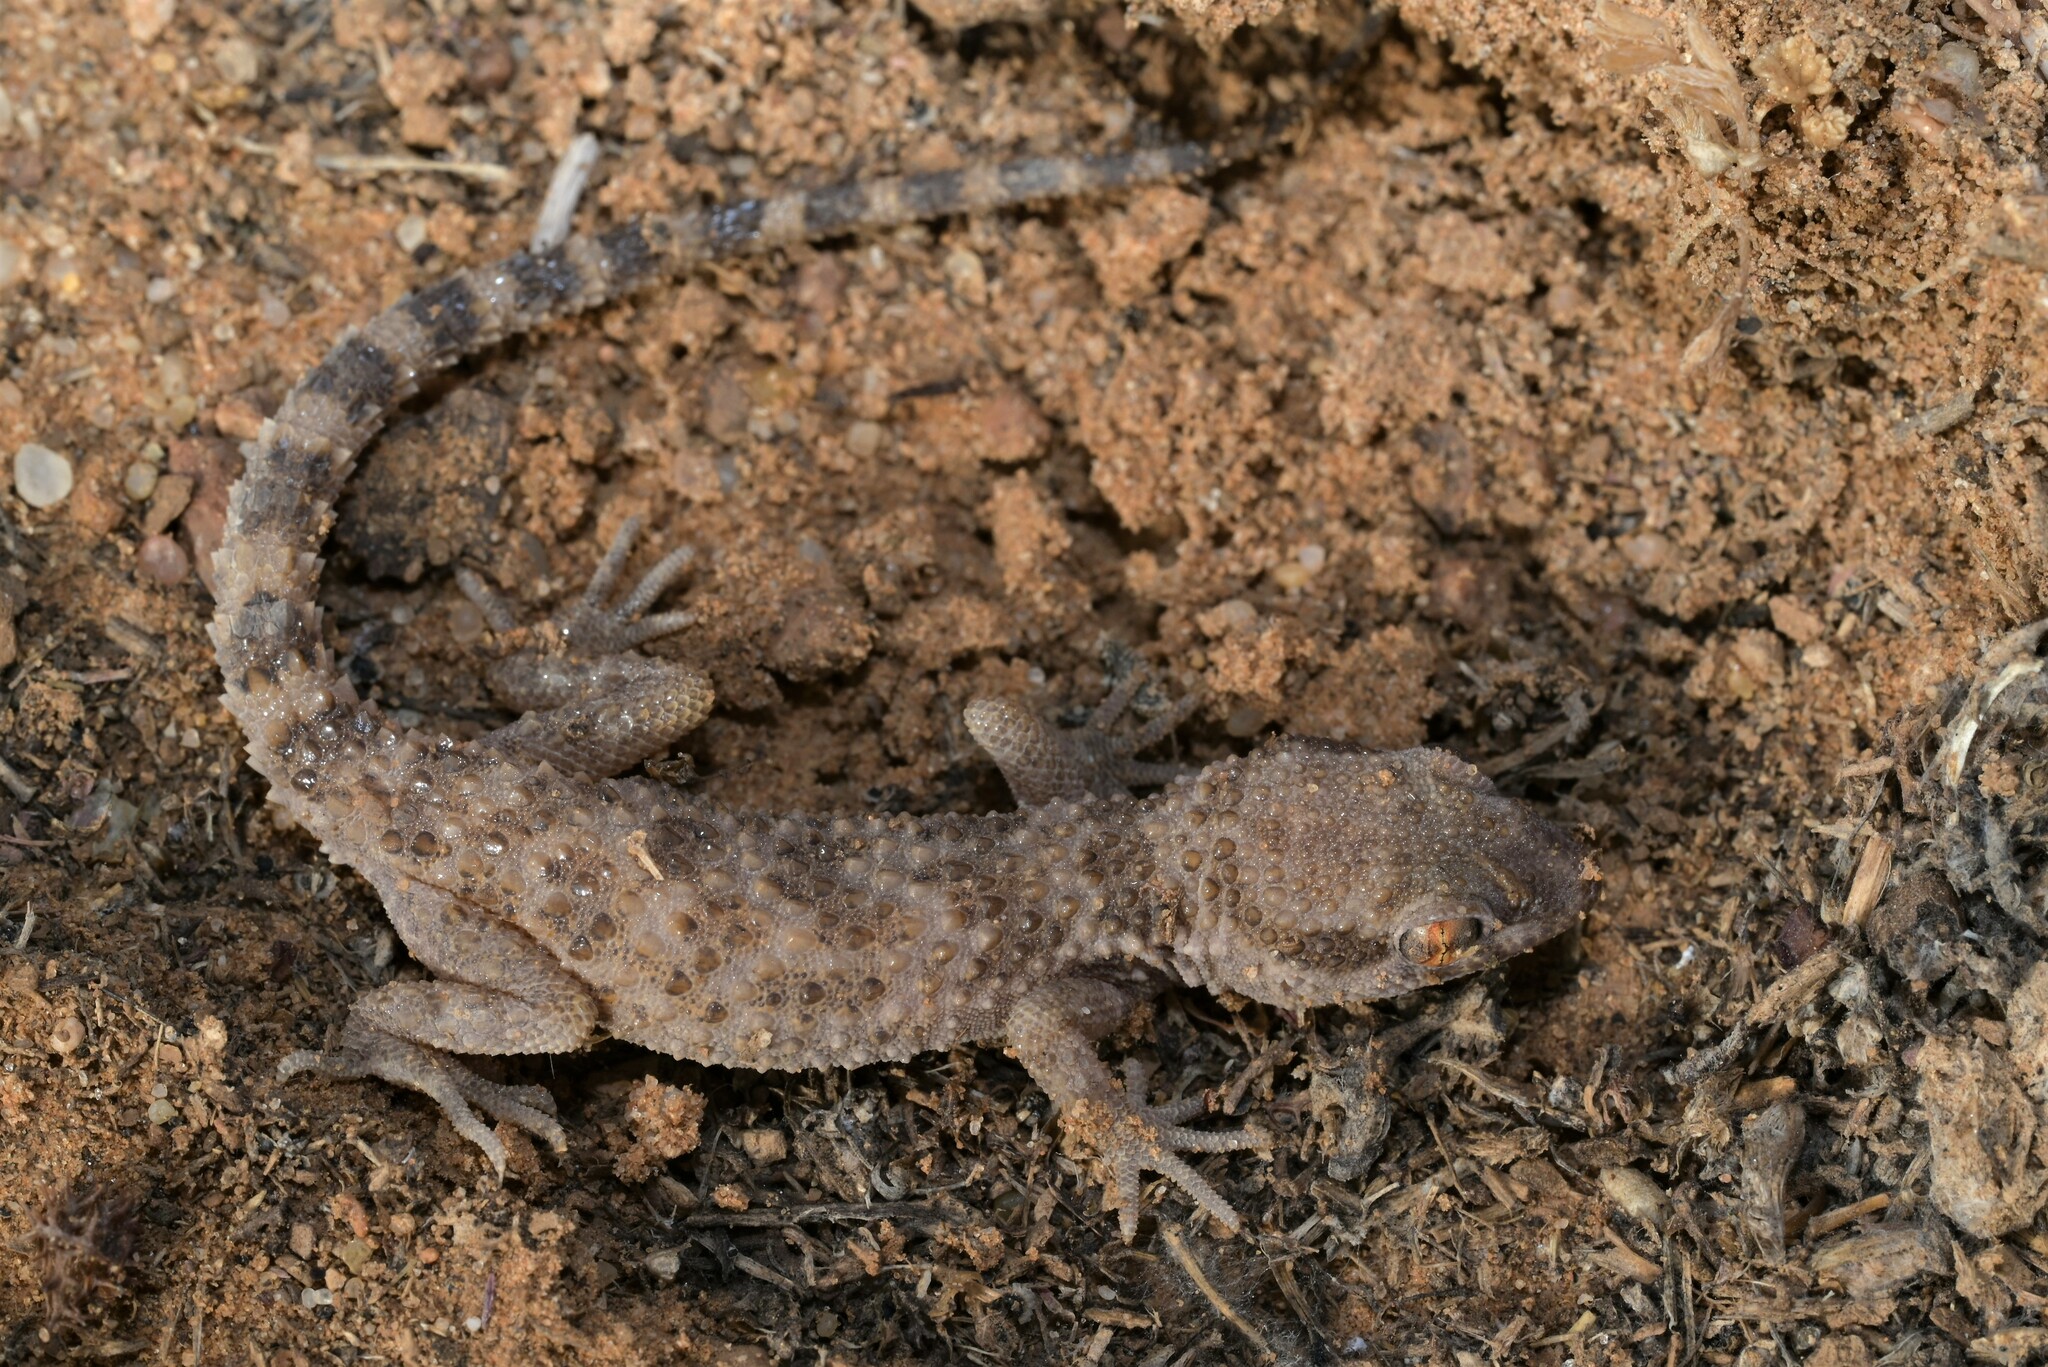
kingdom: Animalia
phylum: Chordata
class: Squamata
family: Gekkonidae
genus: Bunopus
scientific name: Bunopus tuberculatus
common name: Southern tuberculated gecko
